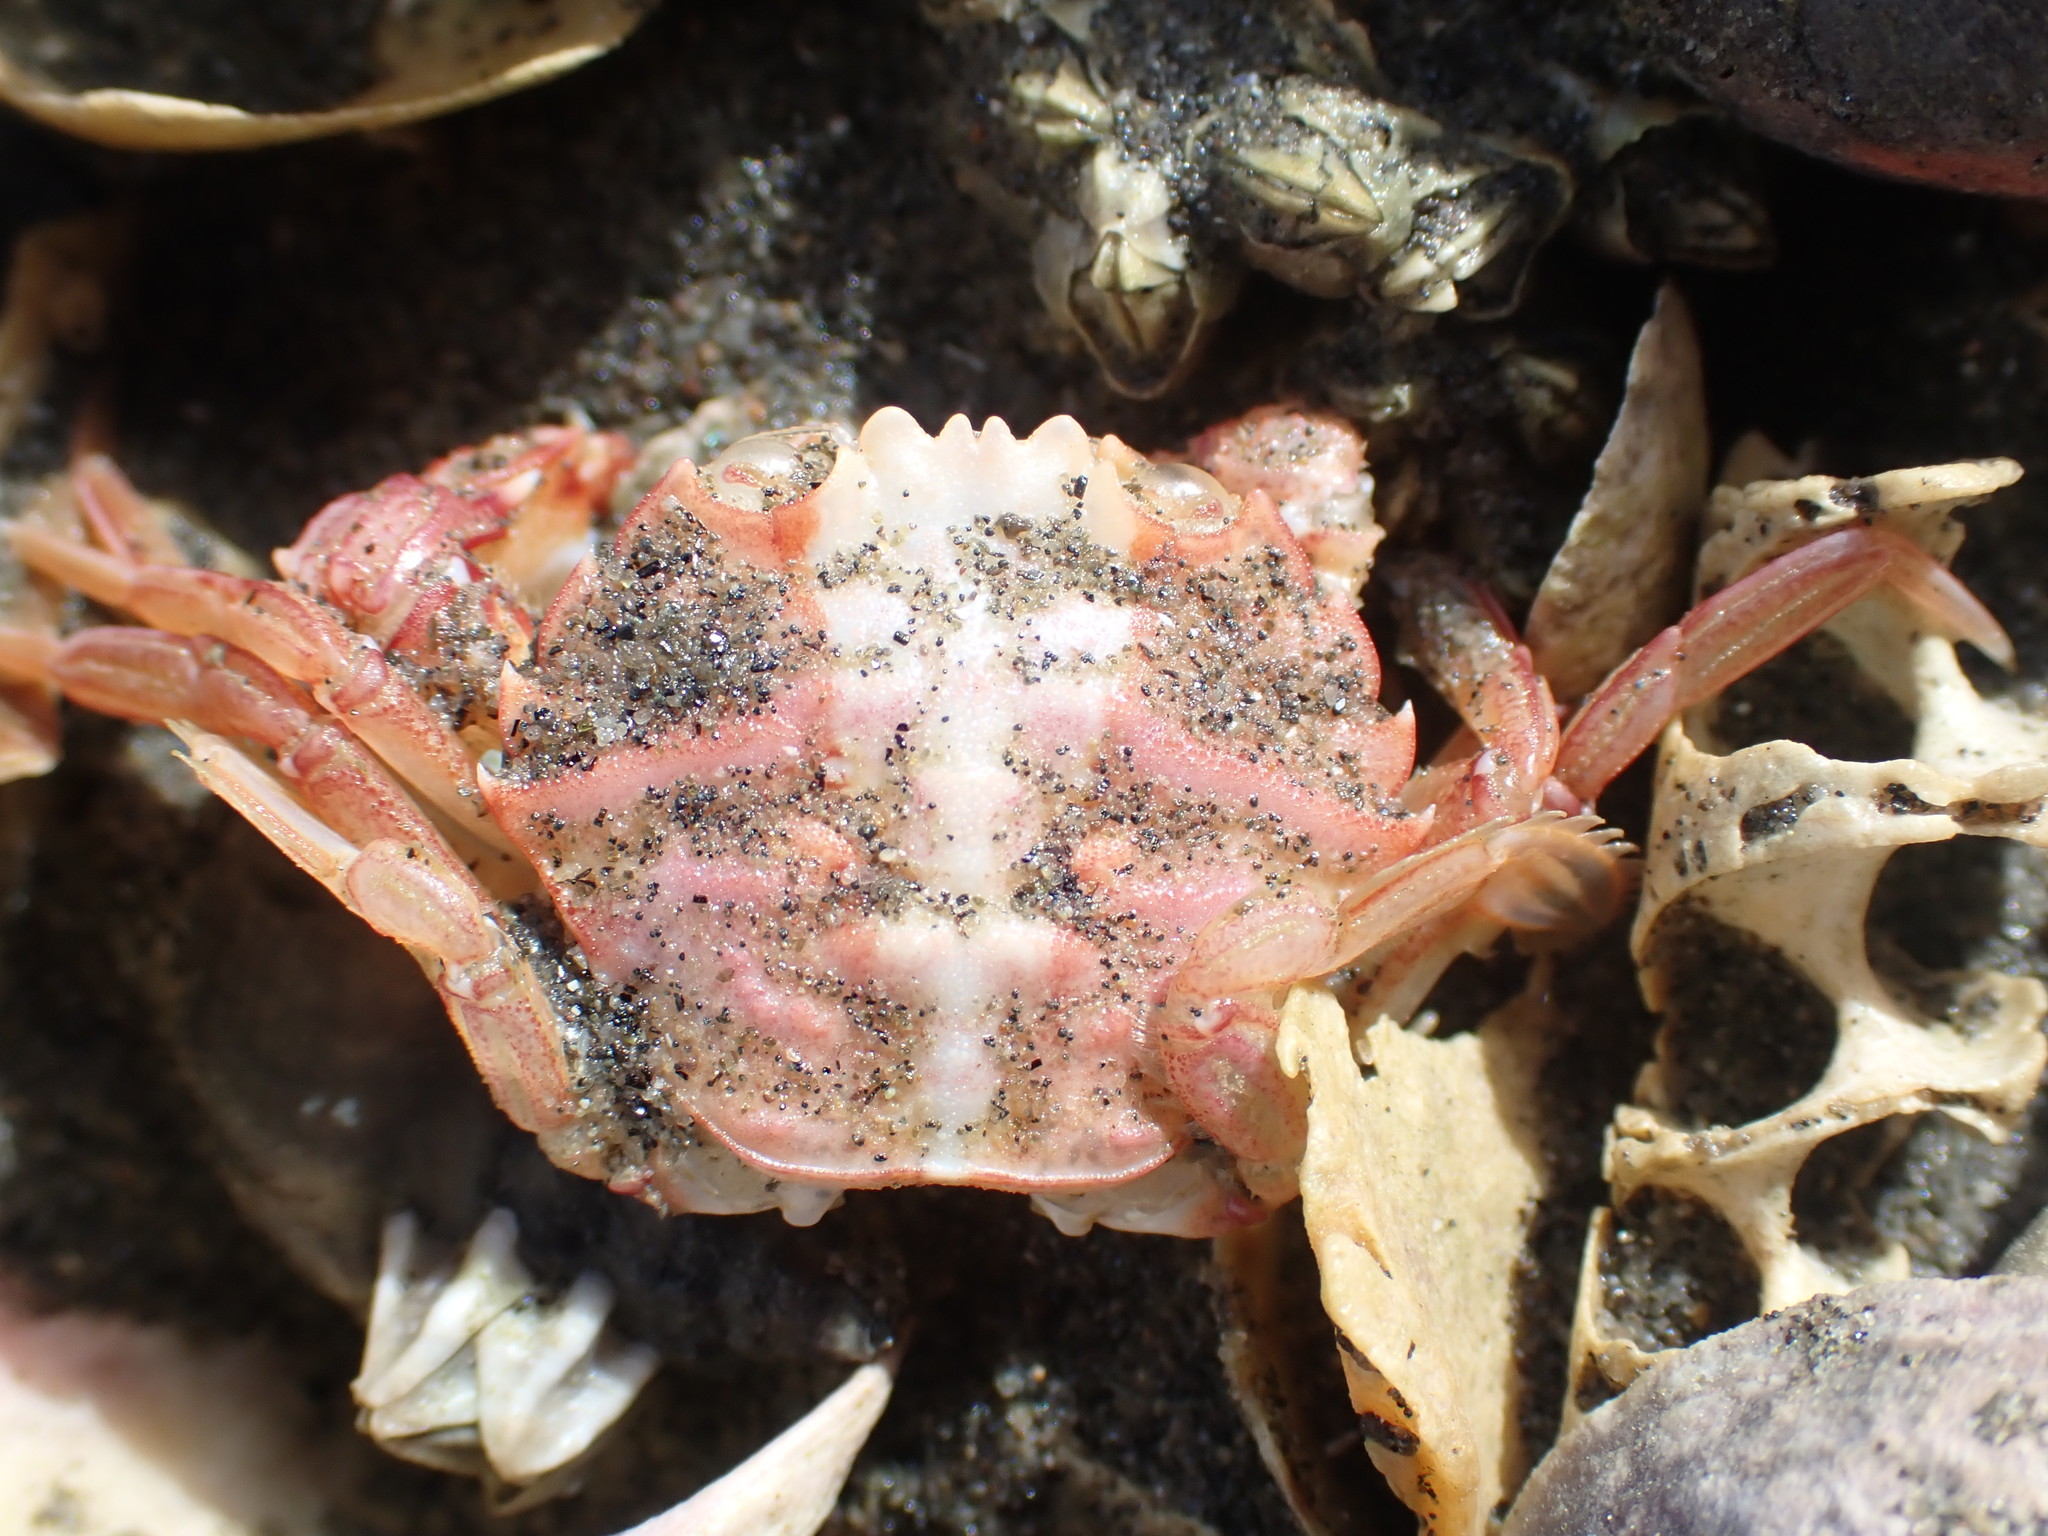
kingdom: Animalia
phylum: Arthropoda
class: Malacostraca
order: Decapoda
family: Geryonidae
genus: Nectocarcinus
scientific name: Nectocarcinus antarcticus
